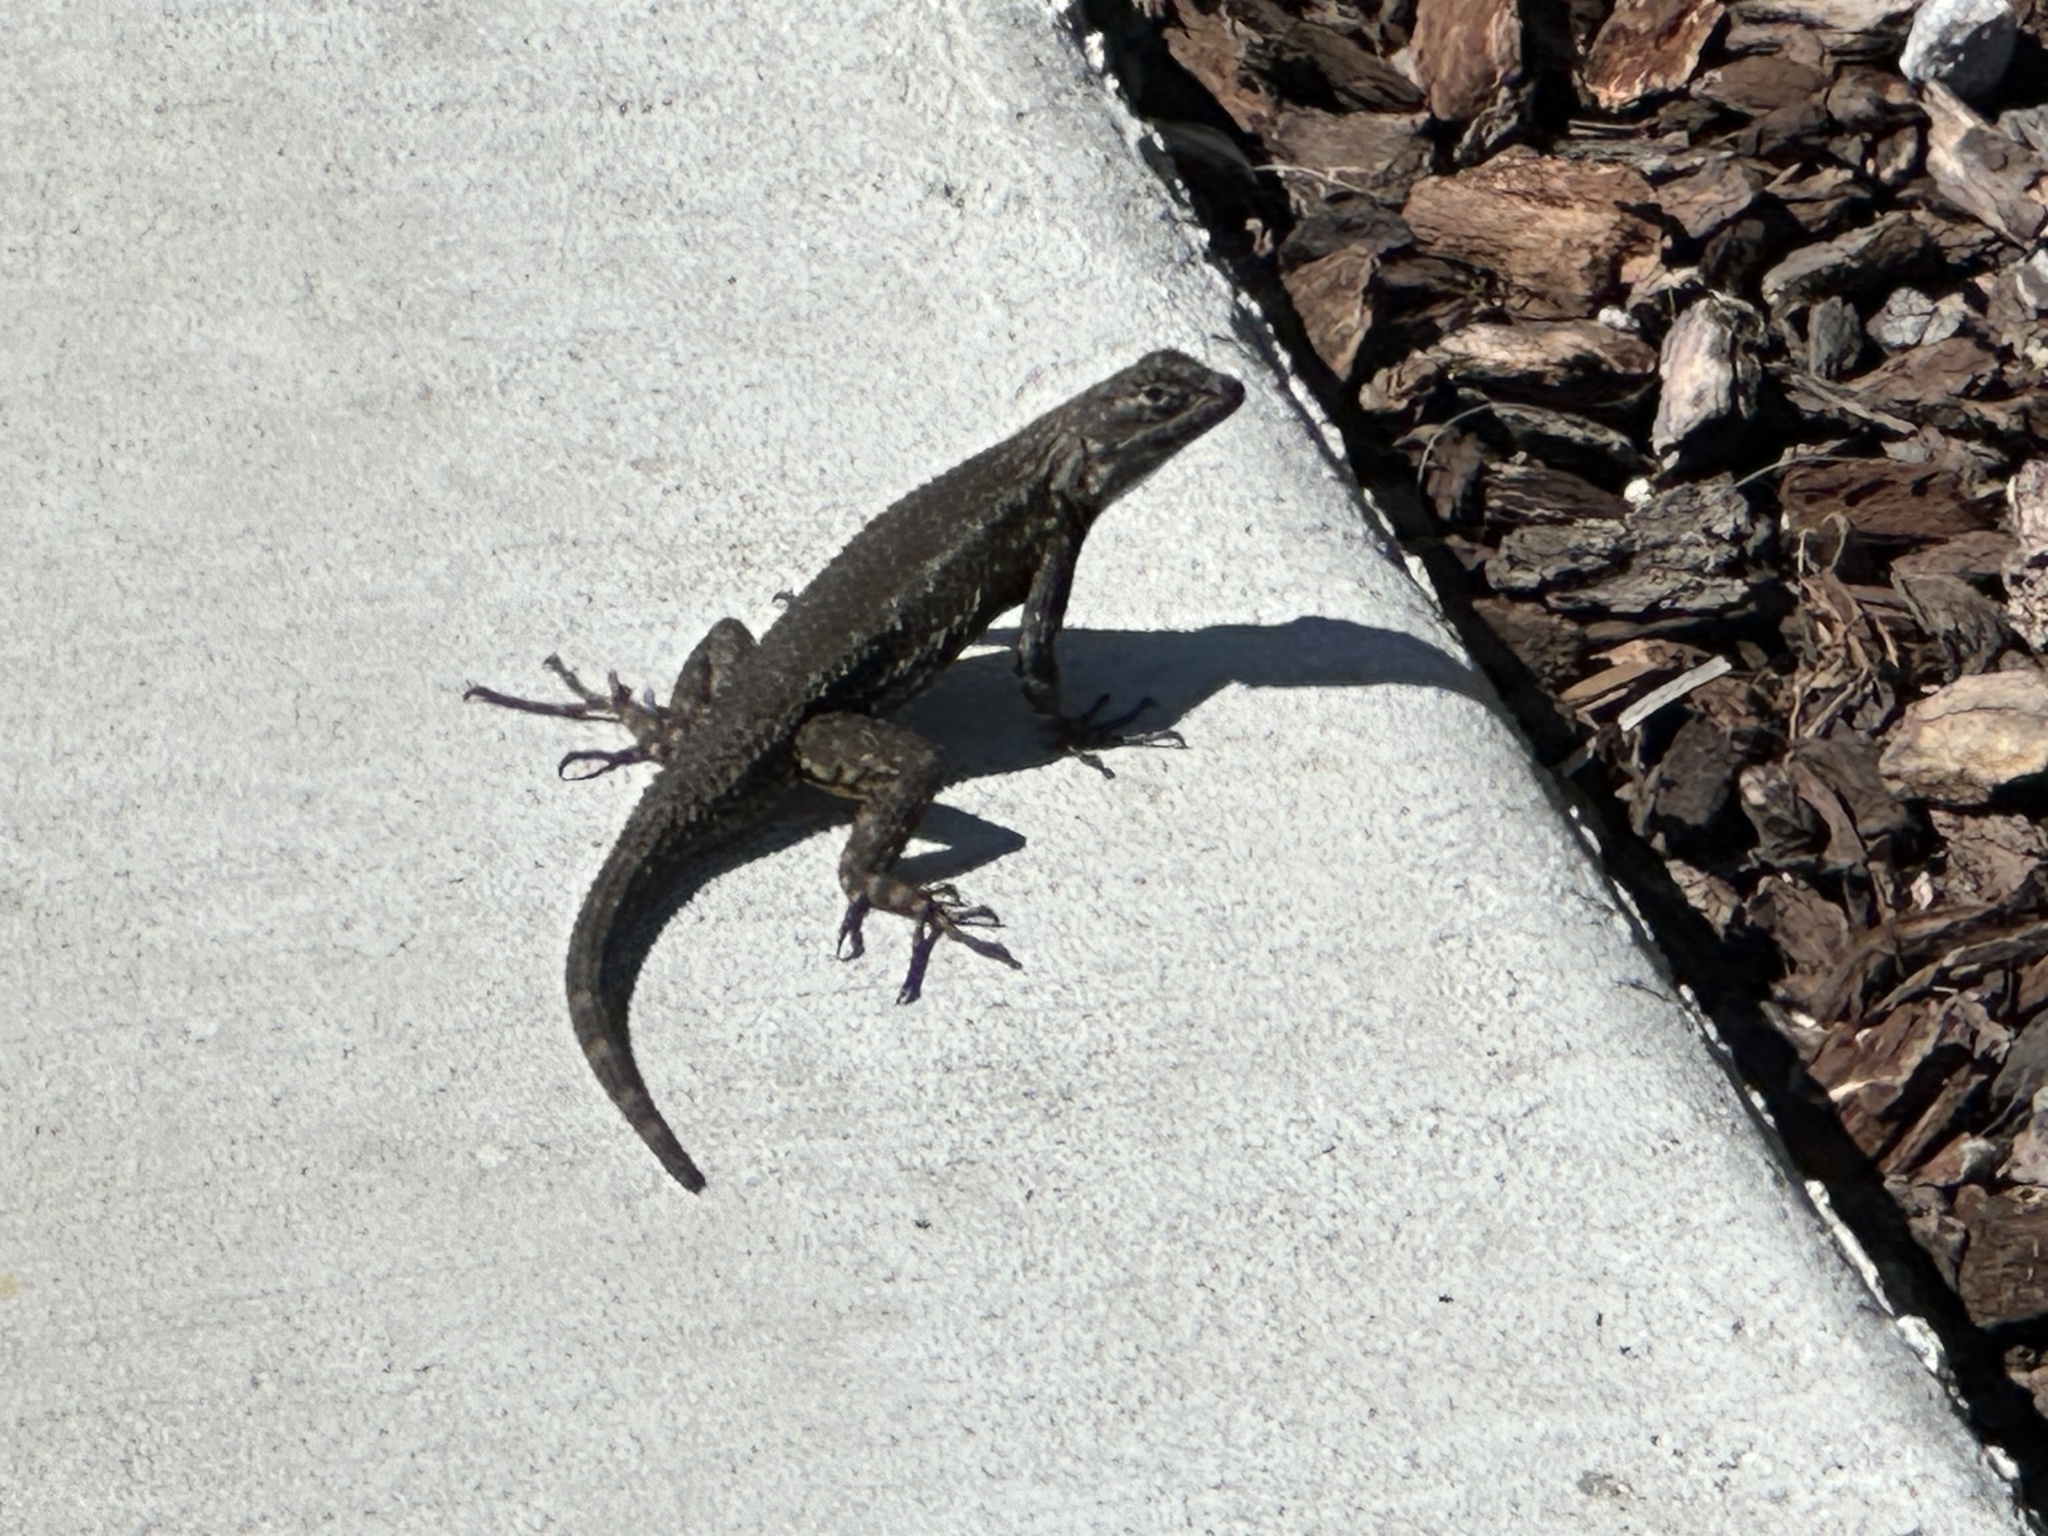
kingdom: Animalia
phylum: Chordata
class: Squamata
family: Phrynosomatidae
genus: Sceloporus
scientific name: Sceloporus occidentalis
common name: Western fence lizard
